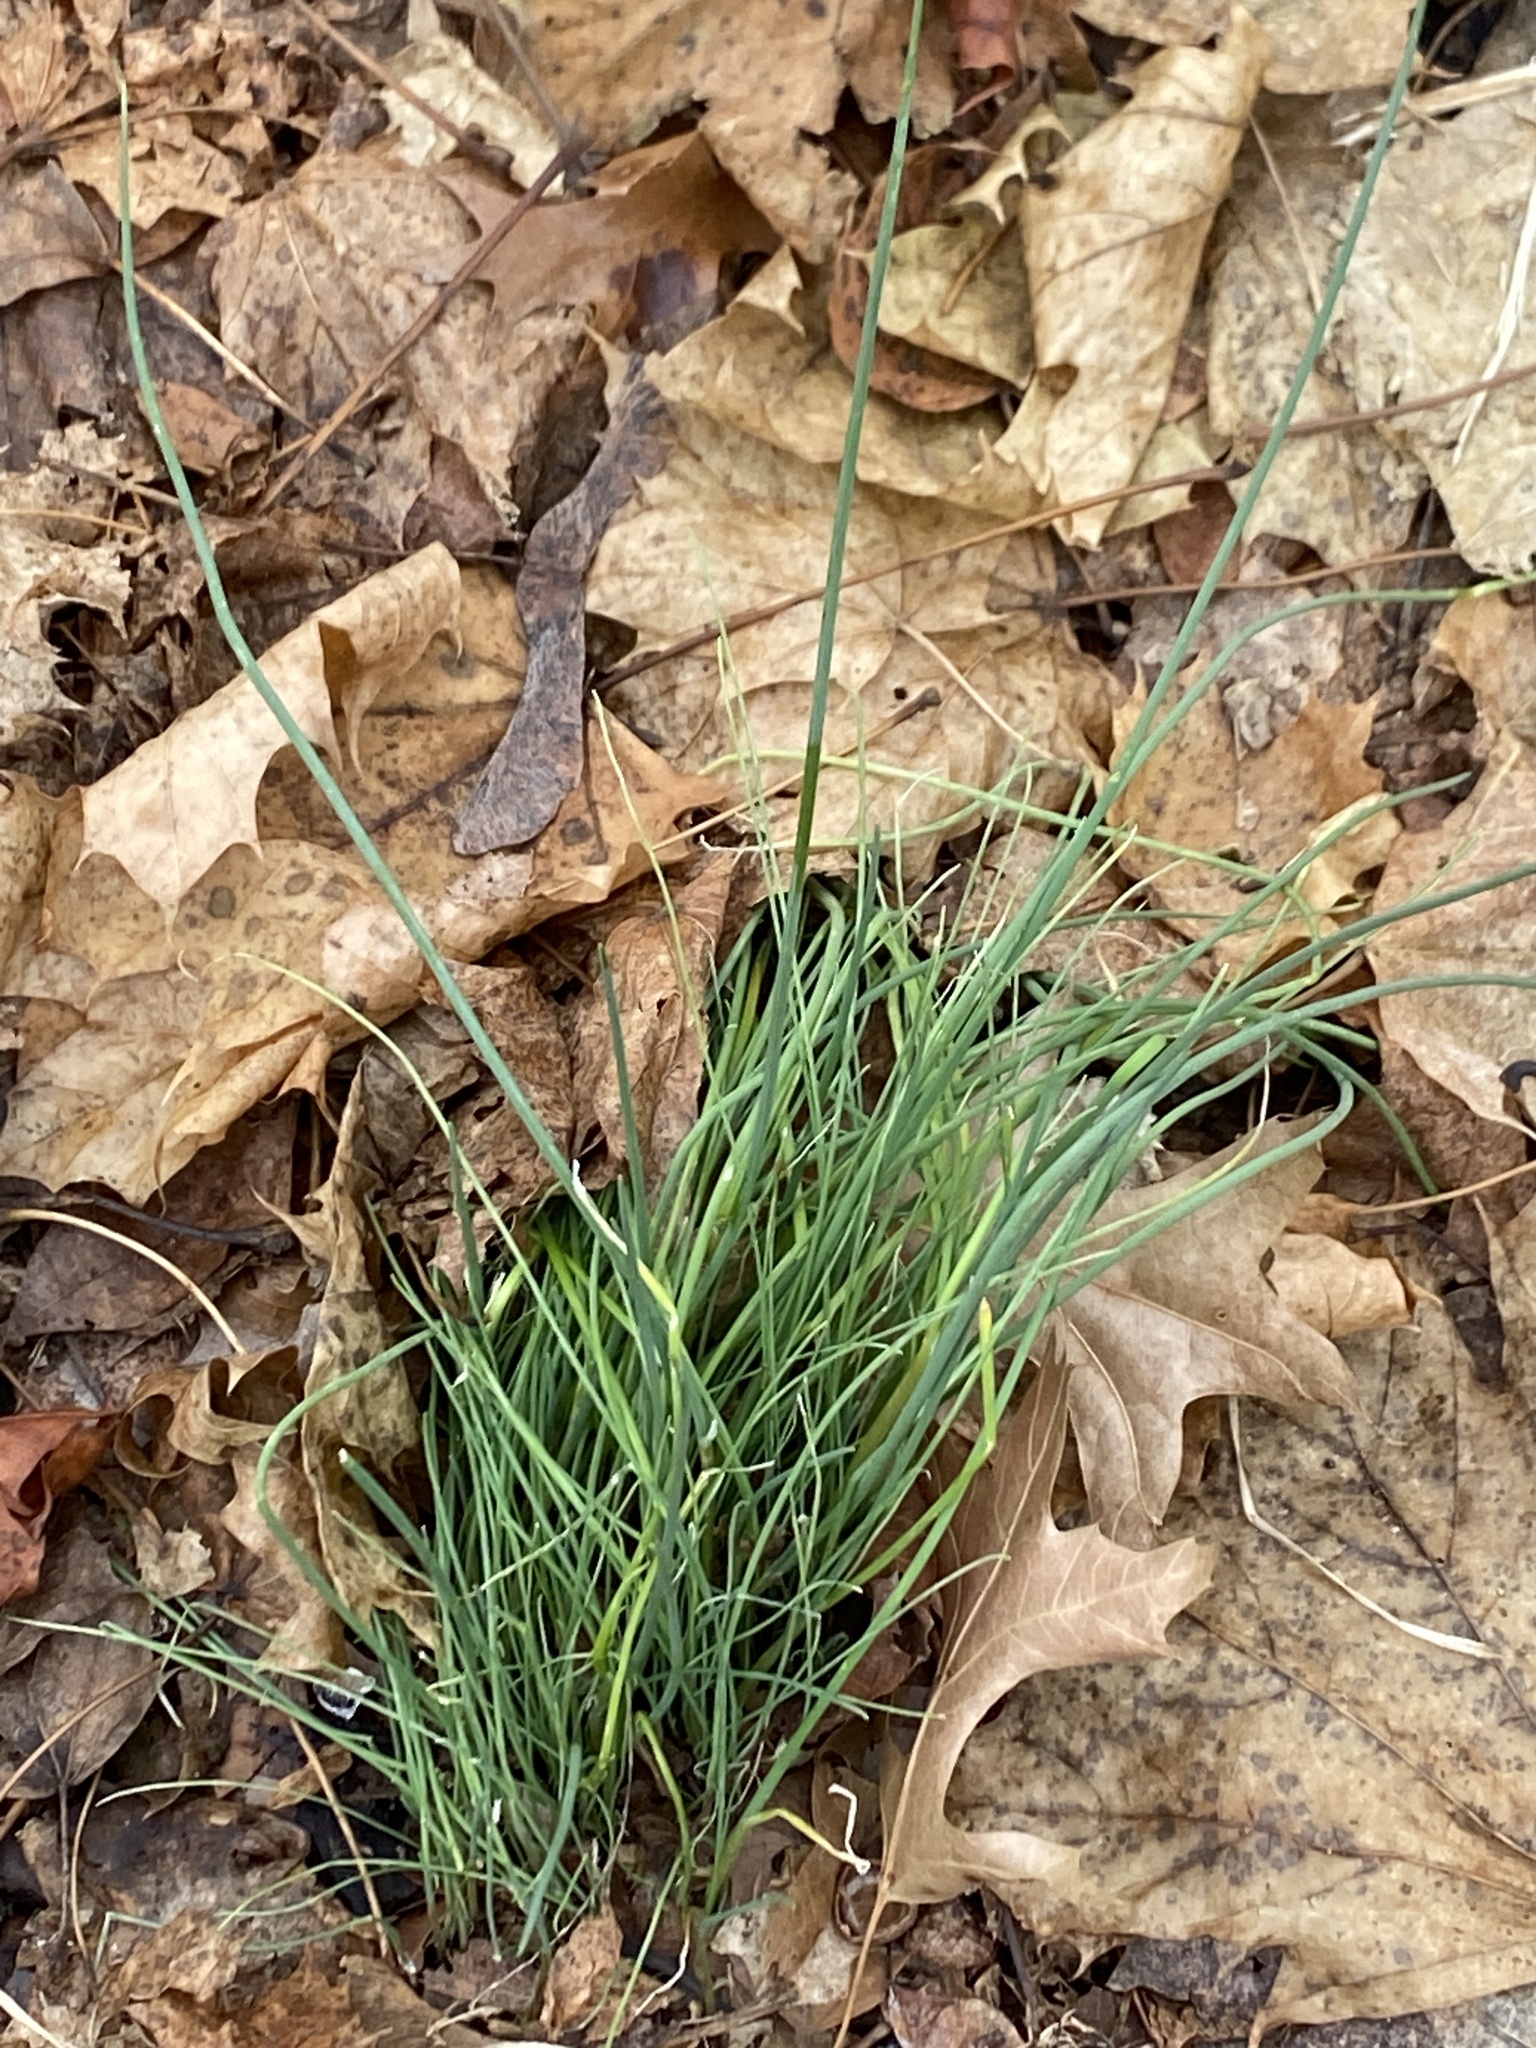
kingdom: Plantae
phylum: Tracheophyta
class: Liliopsida
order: Asparagales
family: Amaryllidaceae
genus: Allium
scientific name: Allium vineale
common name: Crow garlic
